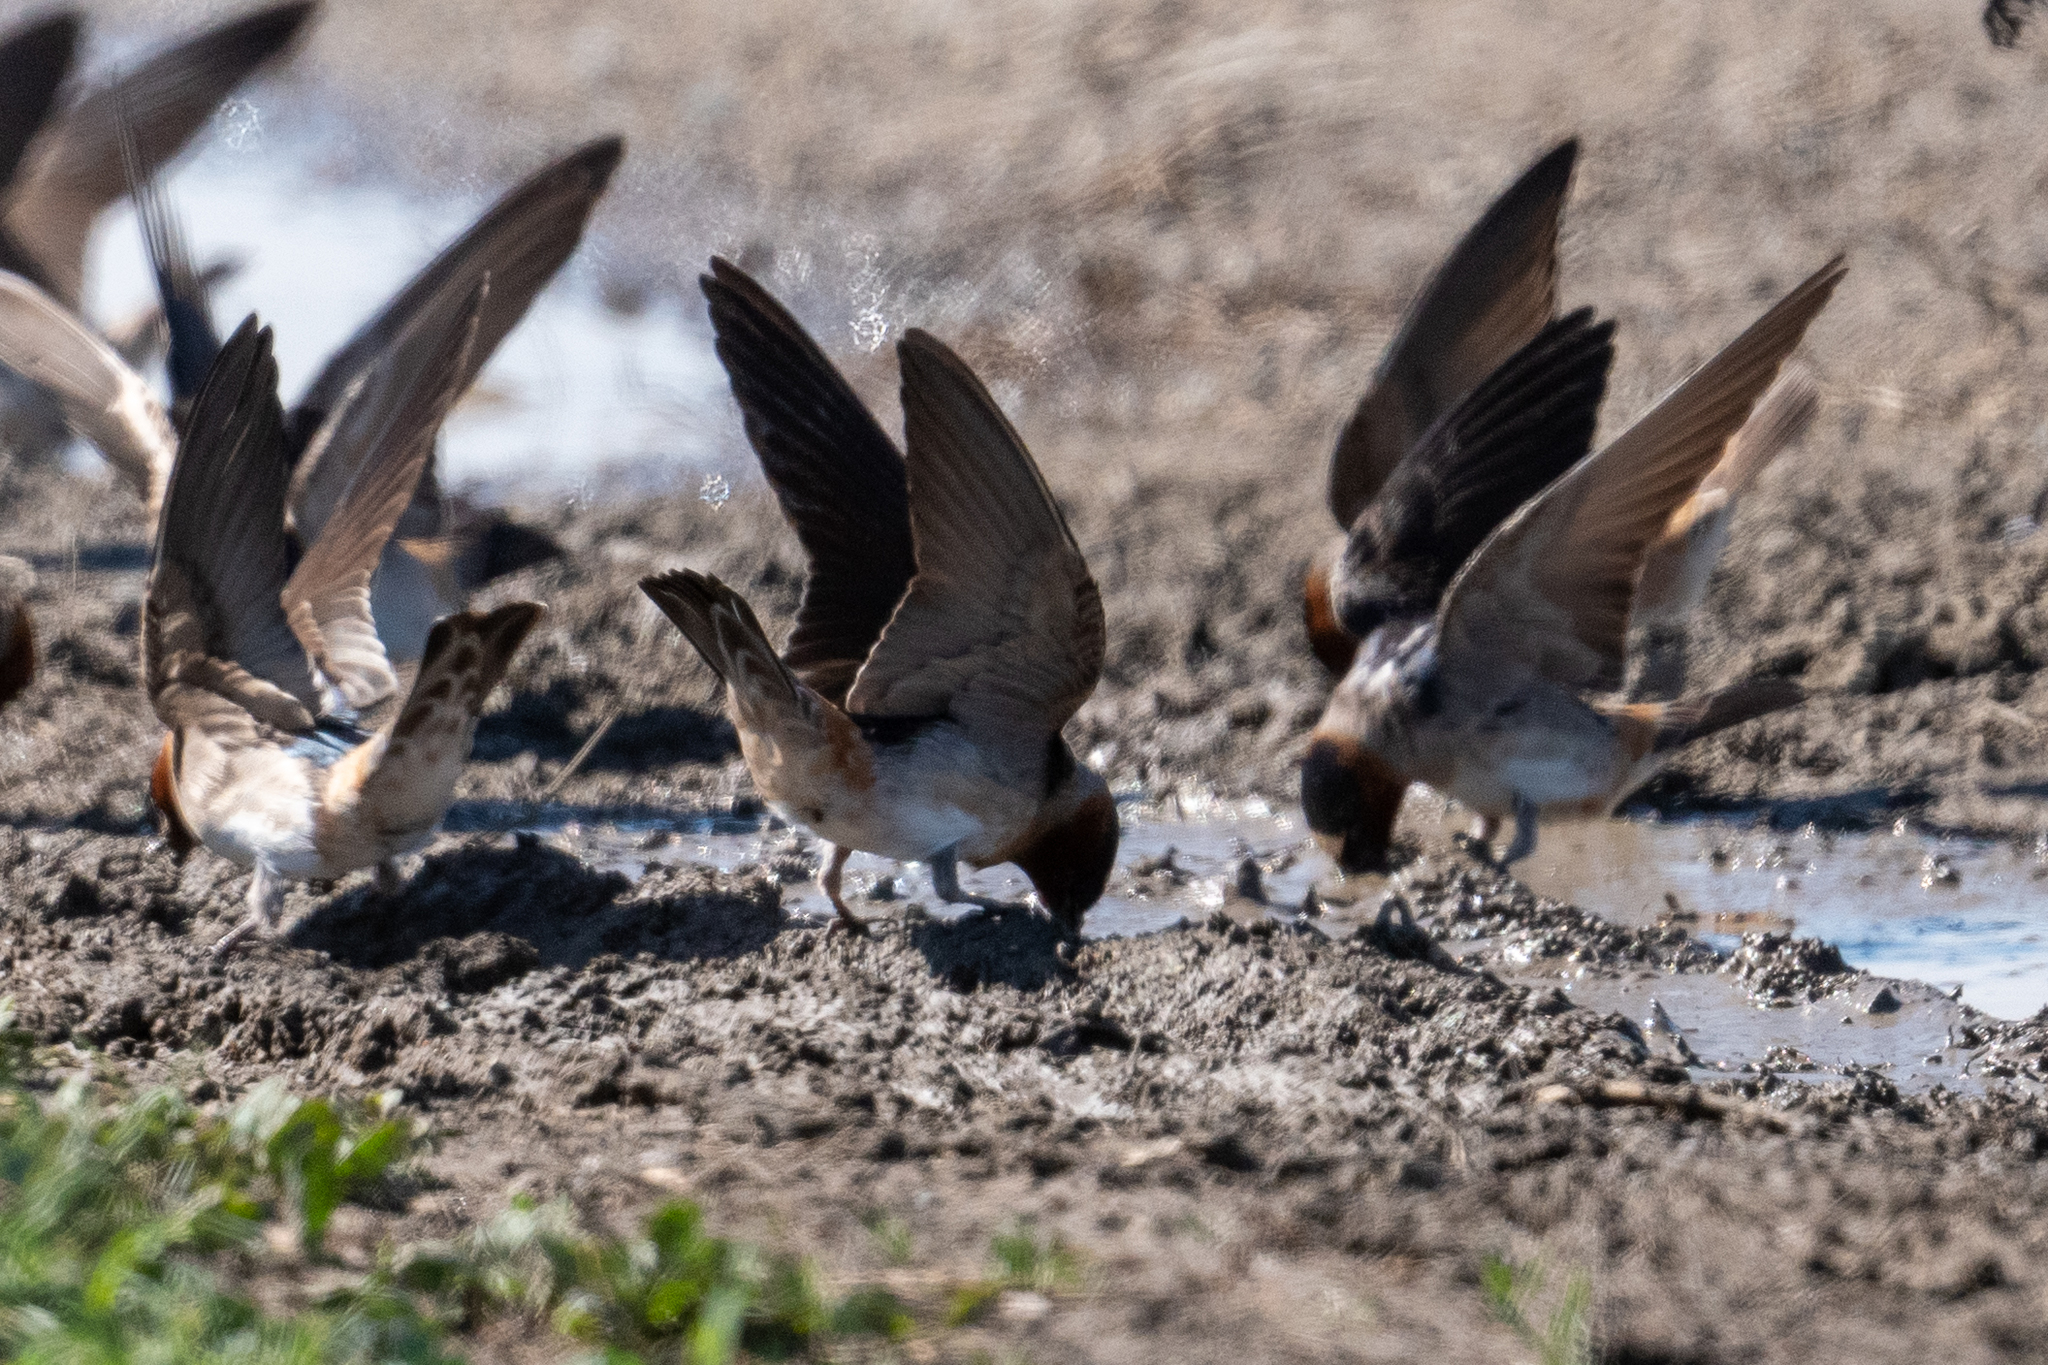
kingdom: Animalia
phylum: Chordata
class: Aves
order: Passeriformes
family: Hirundinidae
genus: Petrochelidon
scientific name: Petrochelidon pyrrhonota
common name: American cliff swallow
